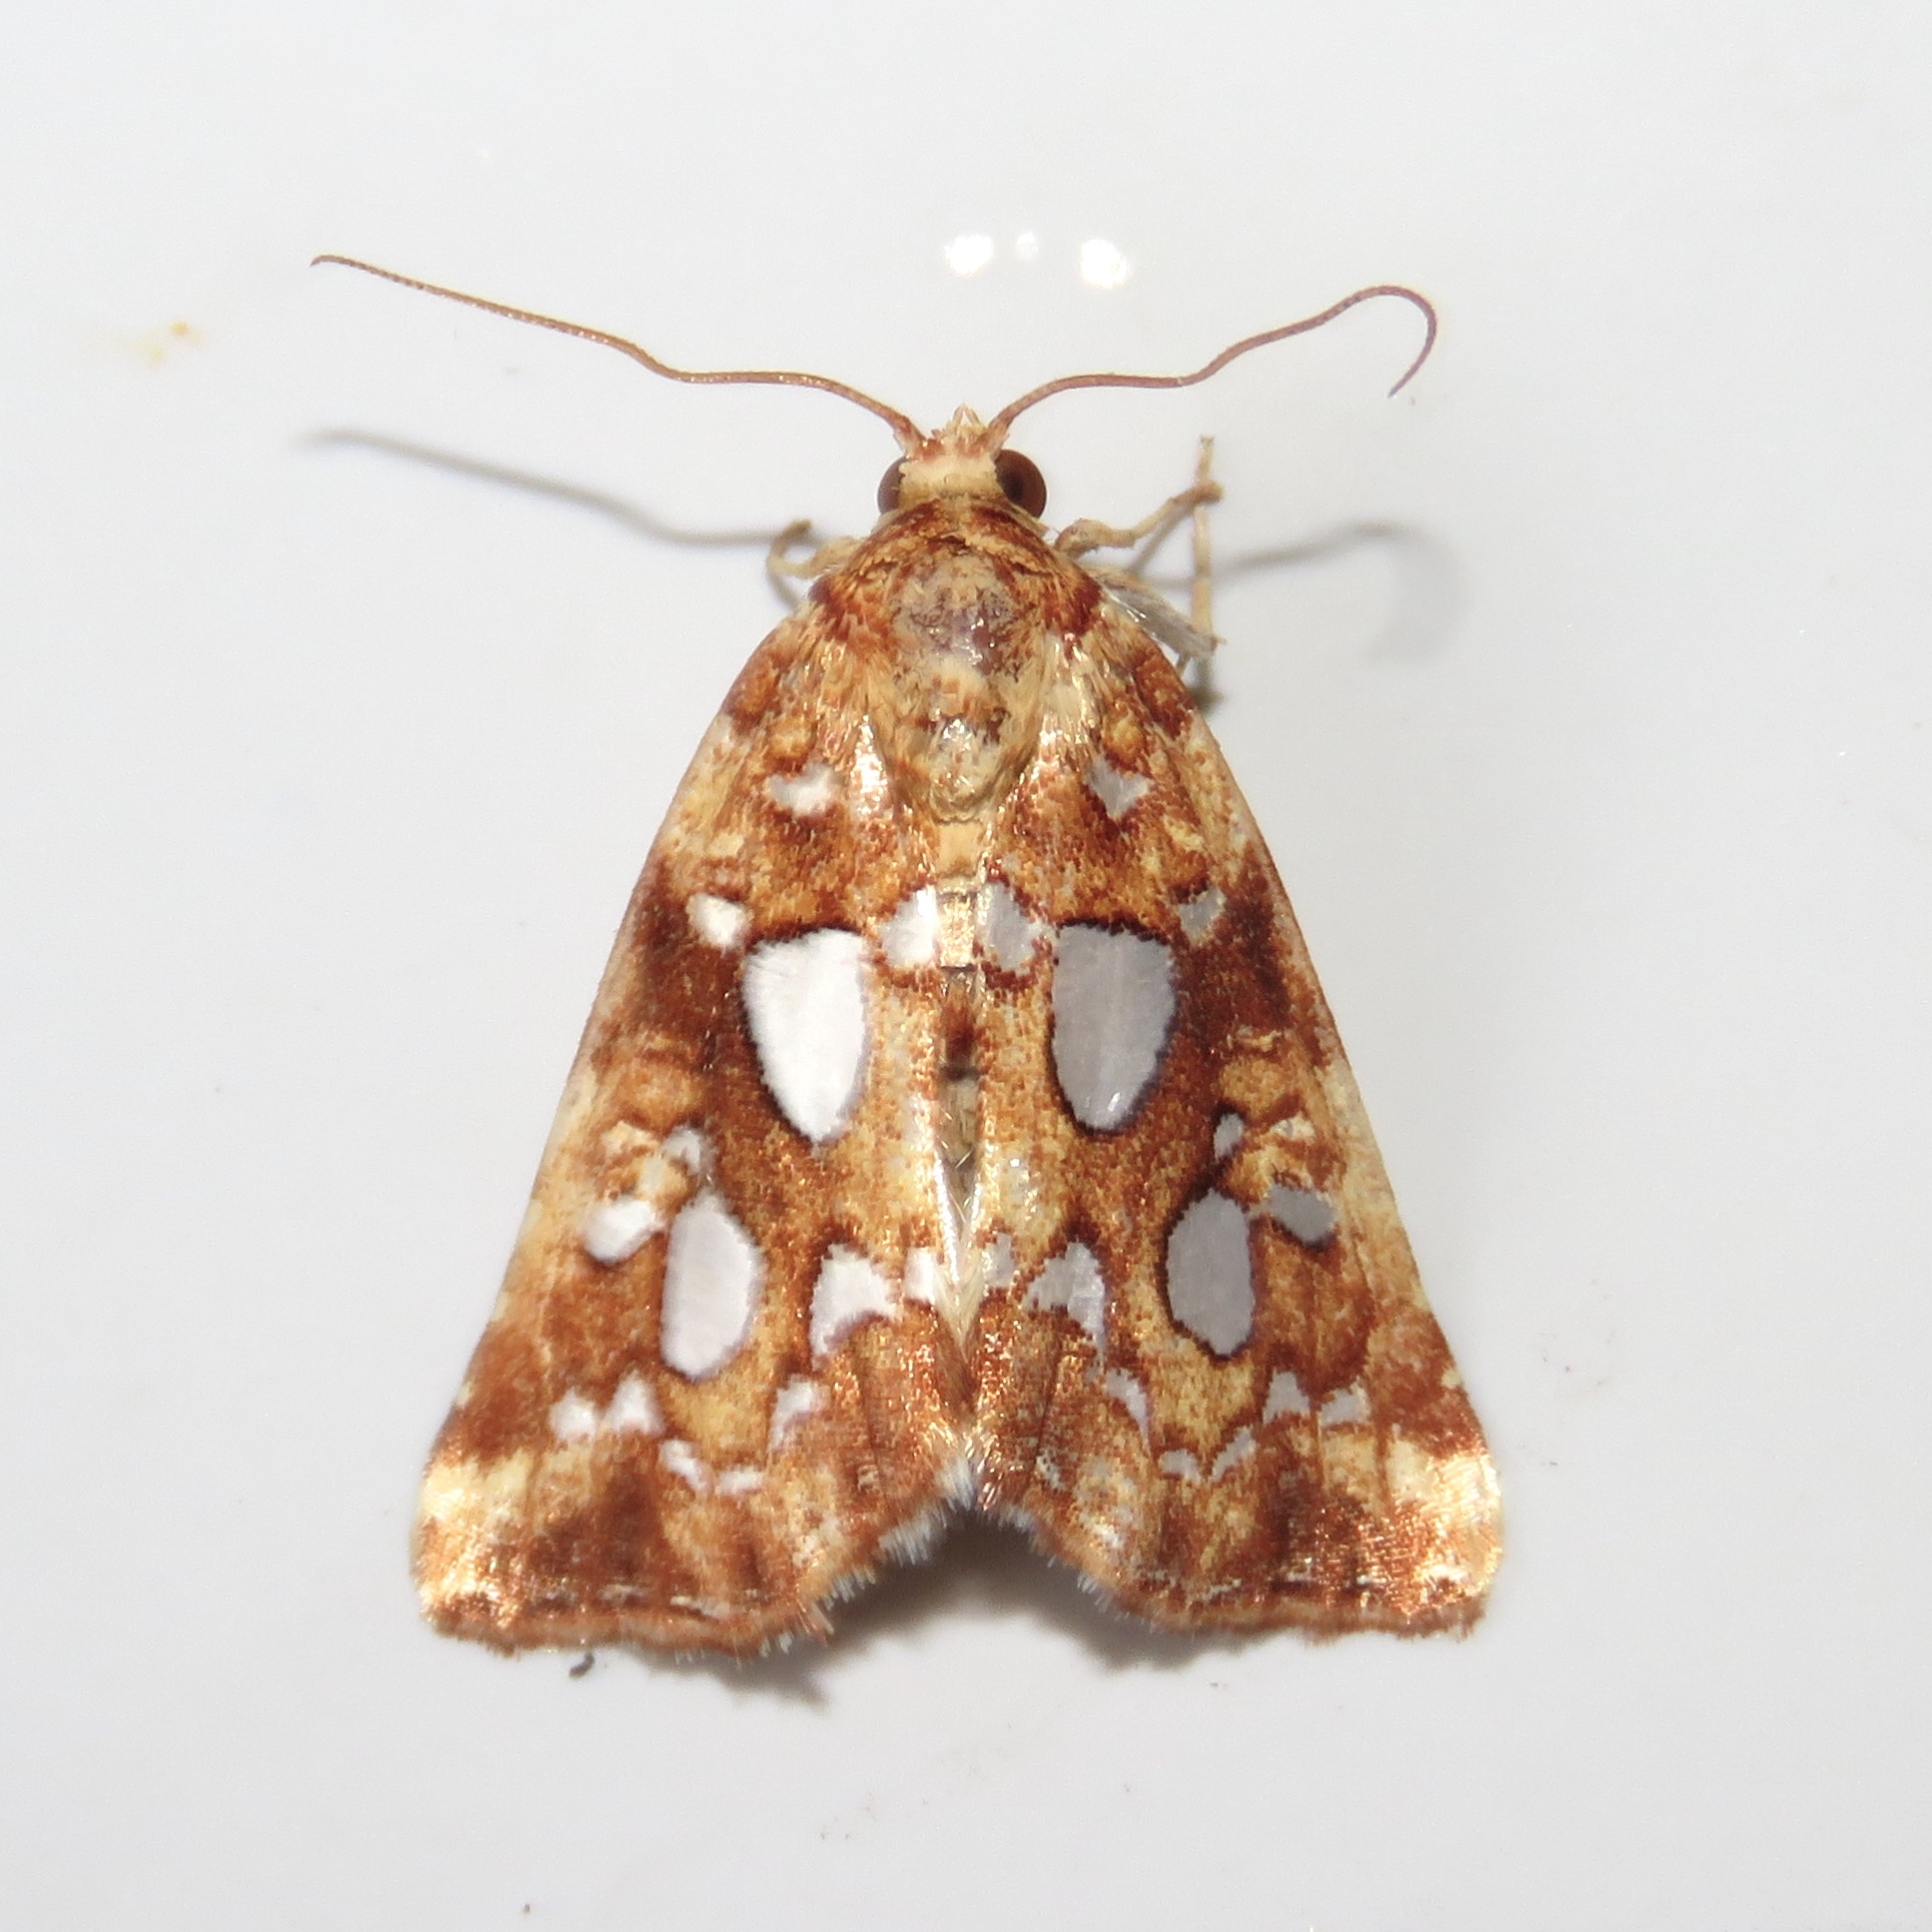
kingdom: Animalia
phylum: Arthropoda
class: Insecta
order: Lepidoptera
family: Noctuidae
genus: Callopistria
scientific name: Callopistria cordata
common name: Silver-spotted fern moth
